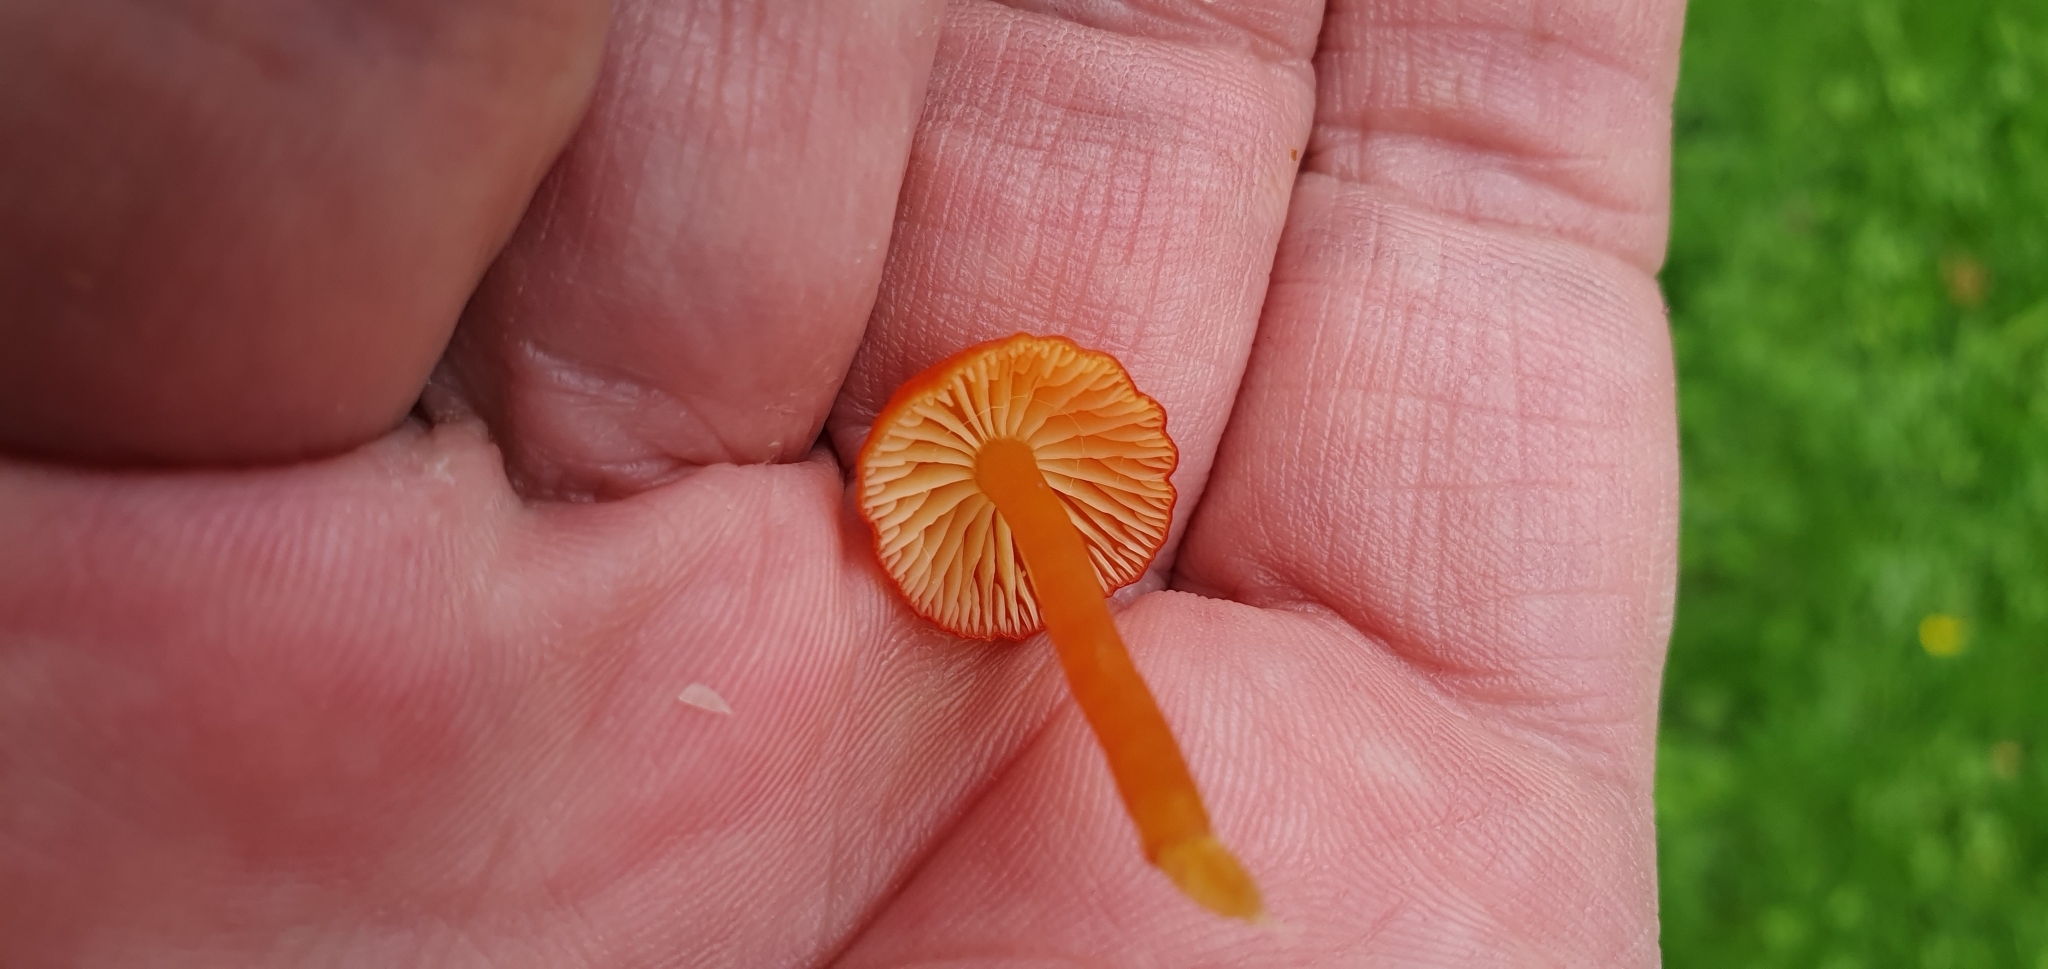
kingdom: Fungi
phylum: Basidiomycota
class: Agaricomycetes
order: Agaricales
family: Hygrophoraceae
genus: Hygrocybe
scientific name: Hygrocybe insipida
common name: Spangle waxcap
